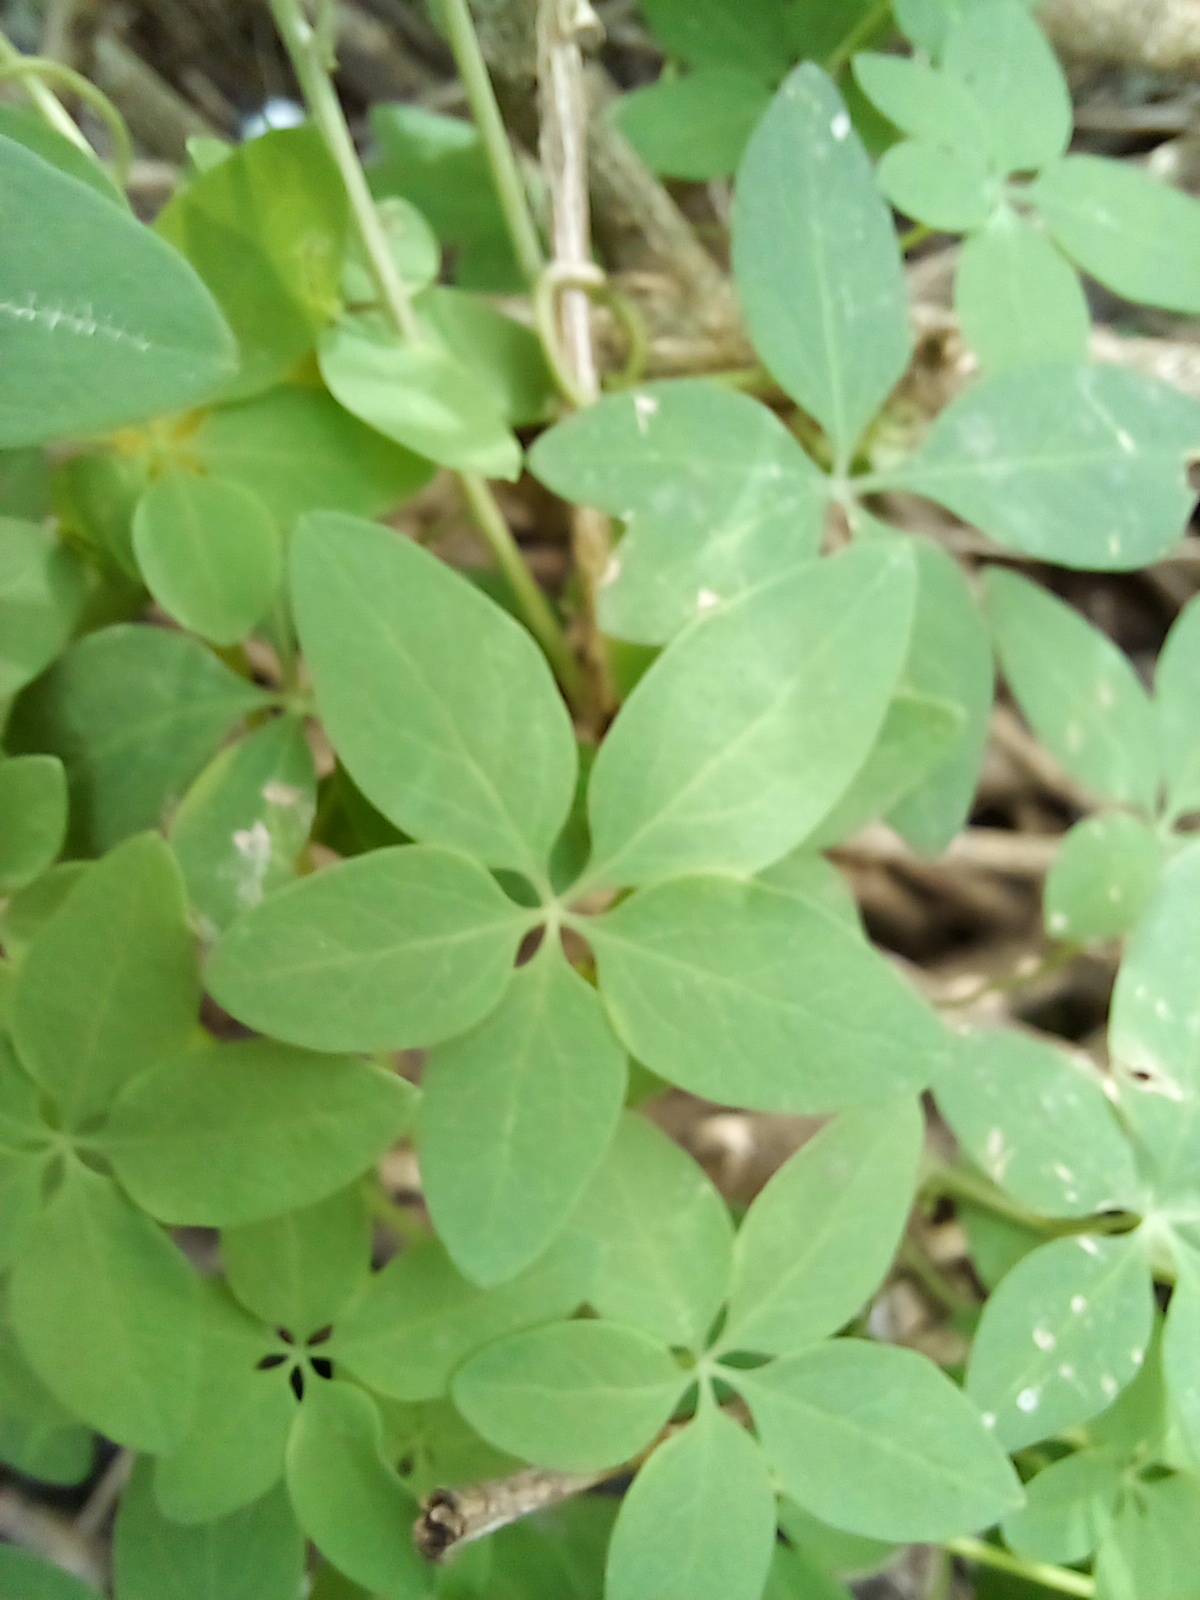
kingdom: Plantae
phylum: Tracheophyta
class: Magnoliopsida
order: Brassicales
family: Tropaeolaceae
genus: Tropaeolum
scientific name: Tropaeolum pentaphyllum
